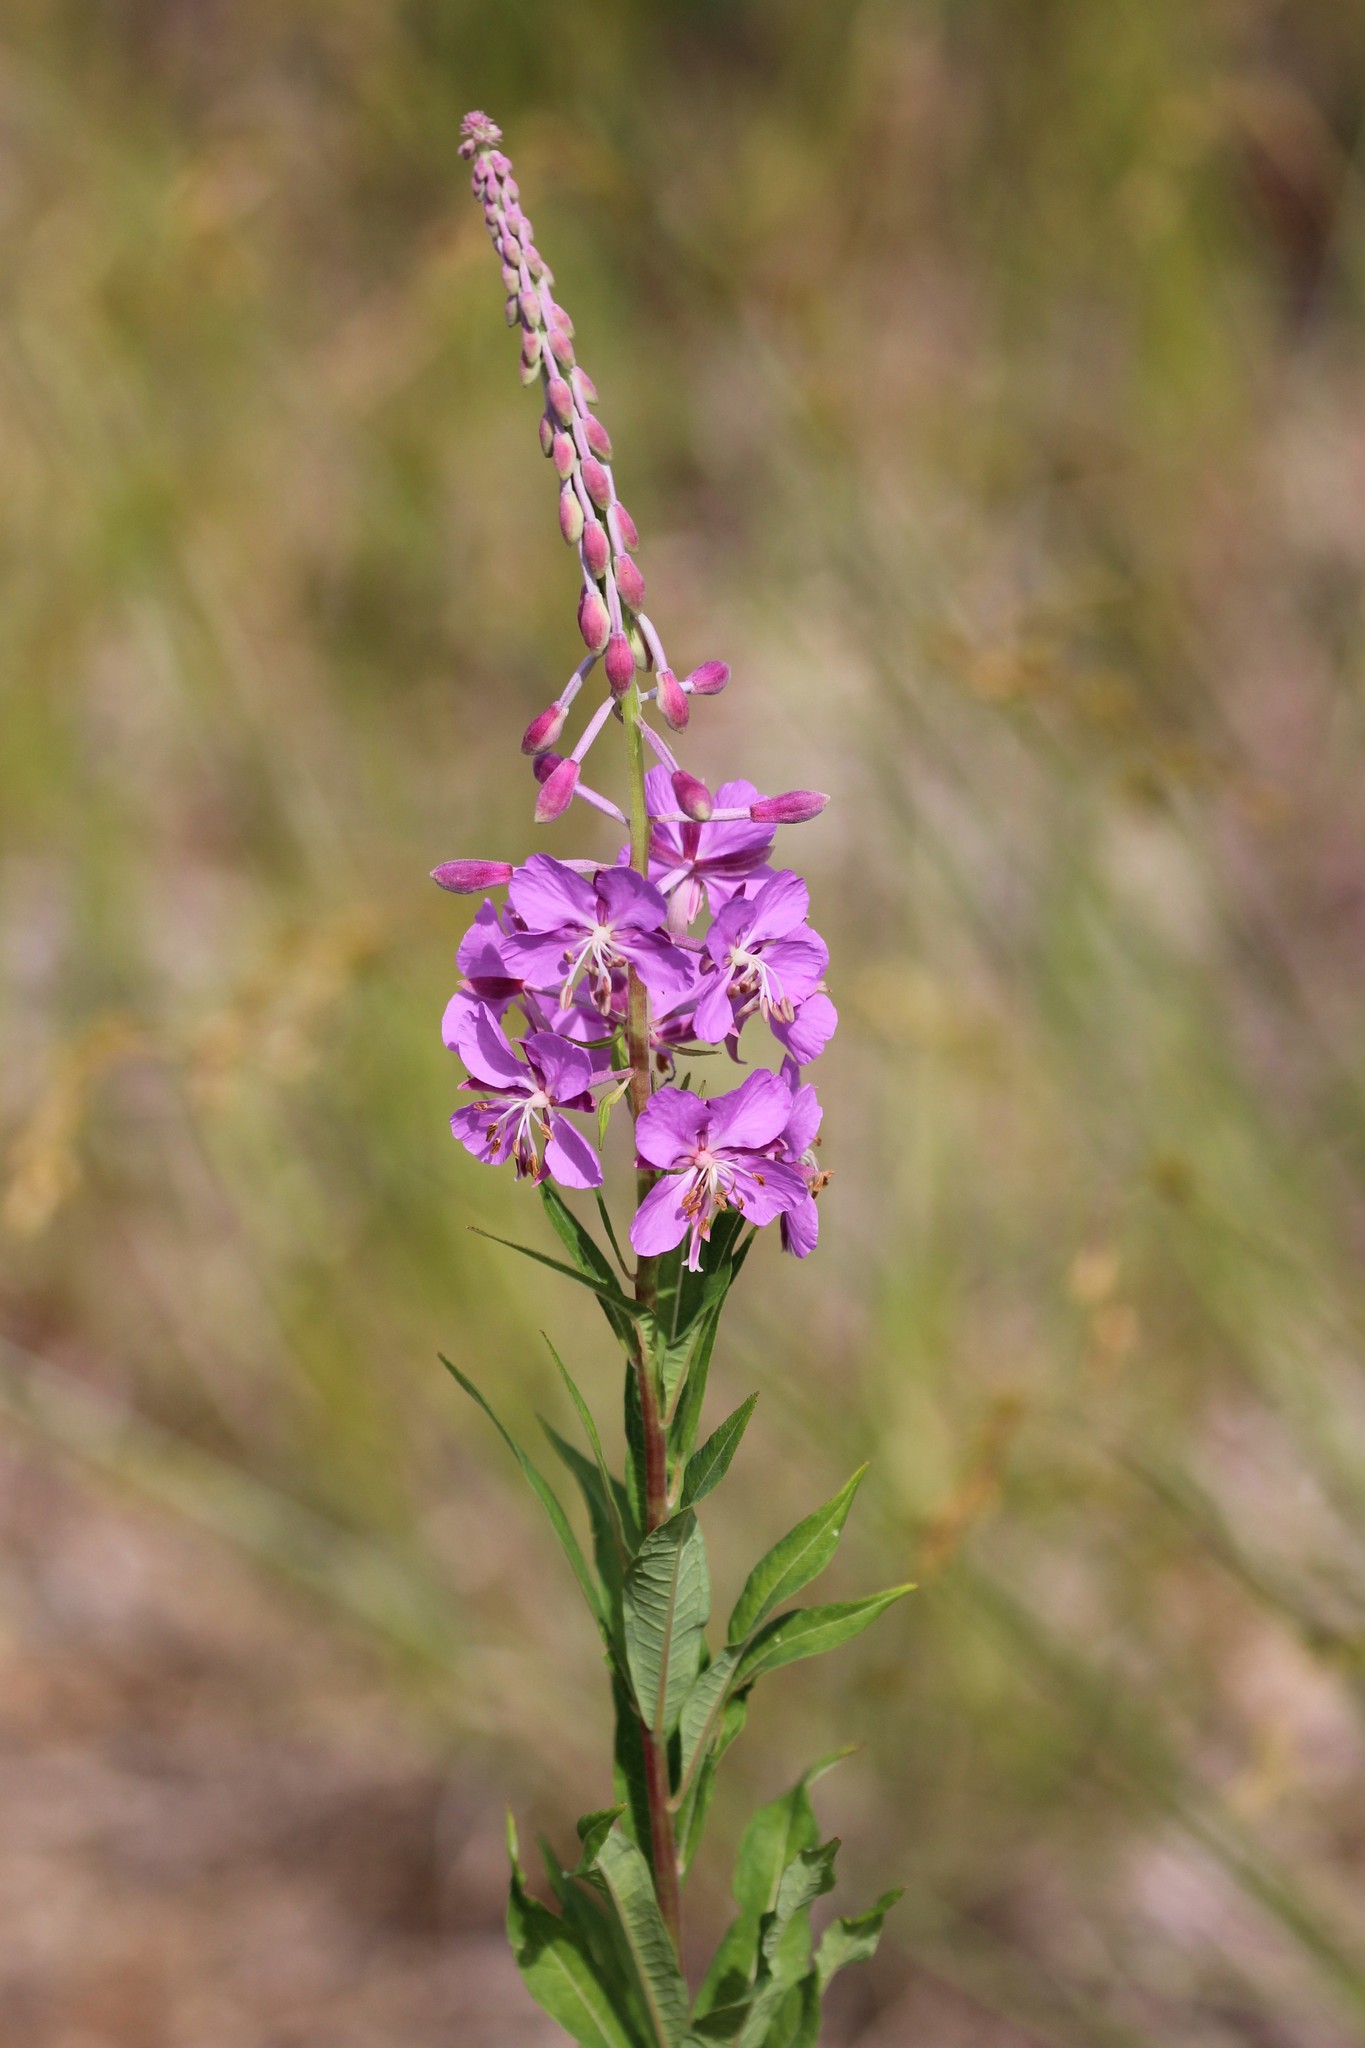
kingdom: Plantae
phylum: Tracheophyta
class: Magnoliopsida
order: Myrtales
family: Onagraceae
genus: Chamaenerion
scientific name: Chamaenerion angustifolium
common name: Fireweed
